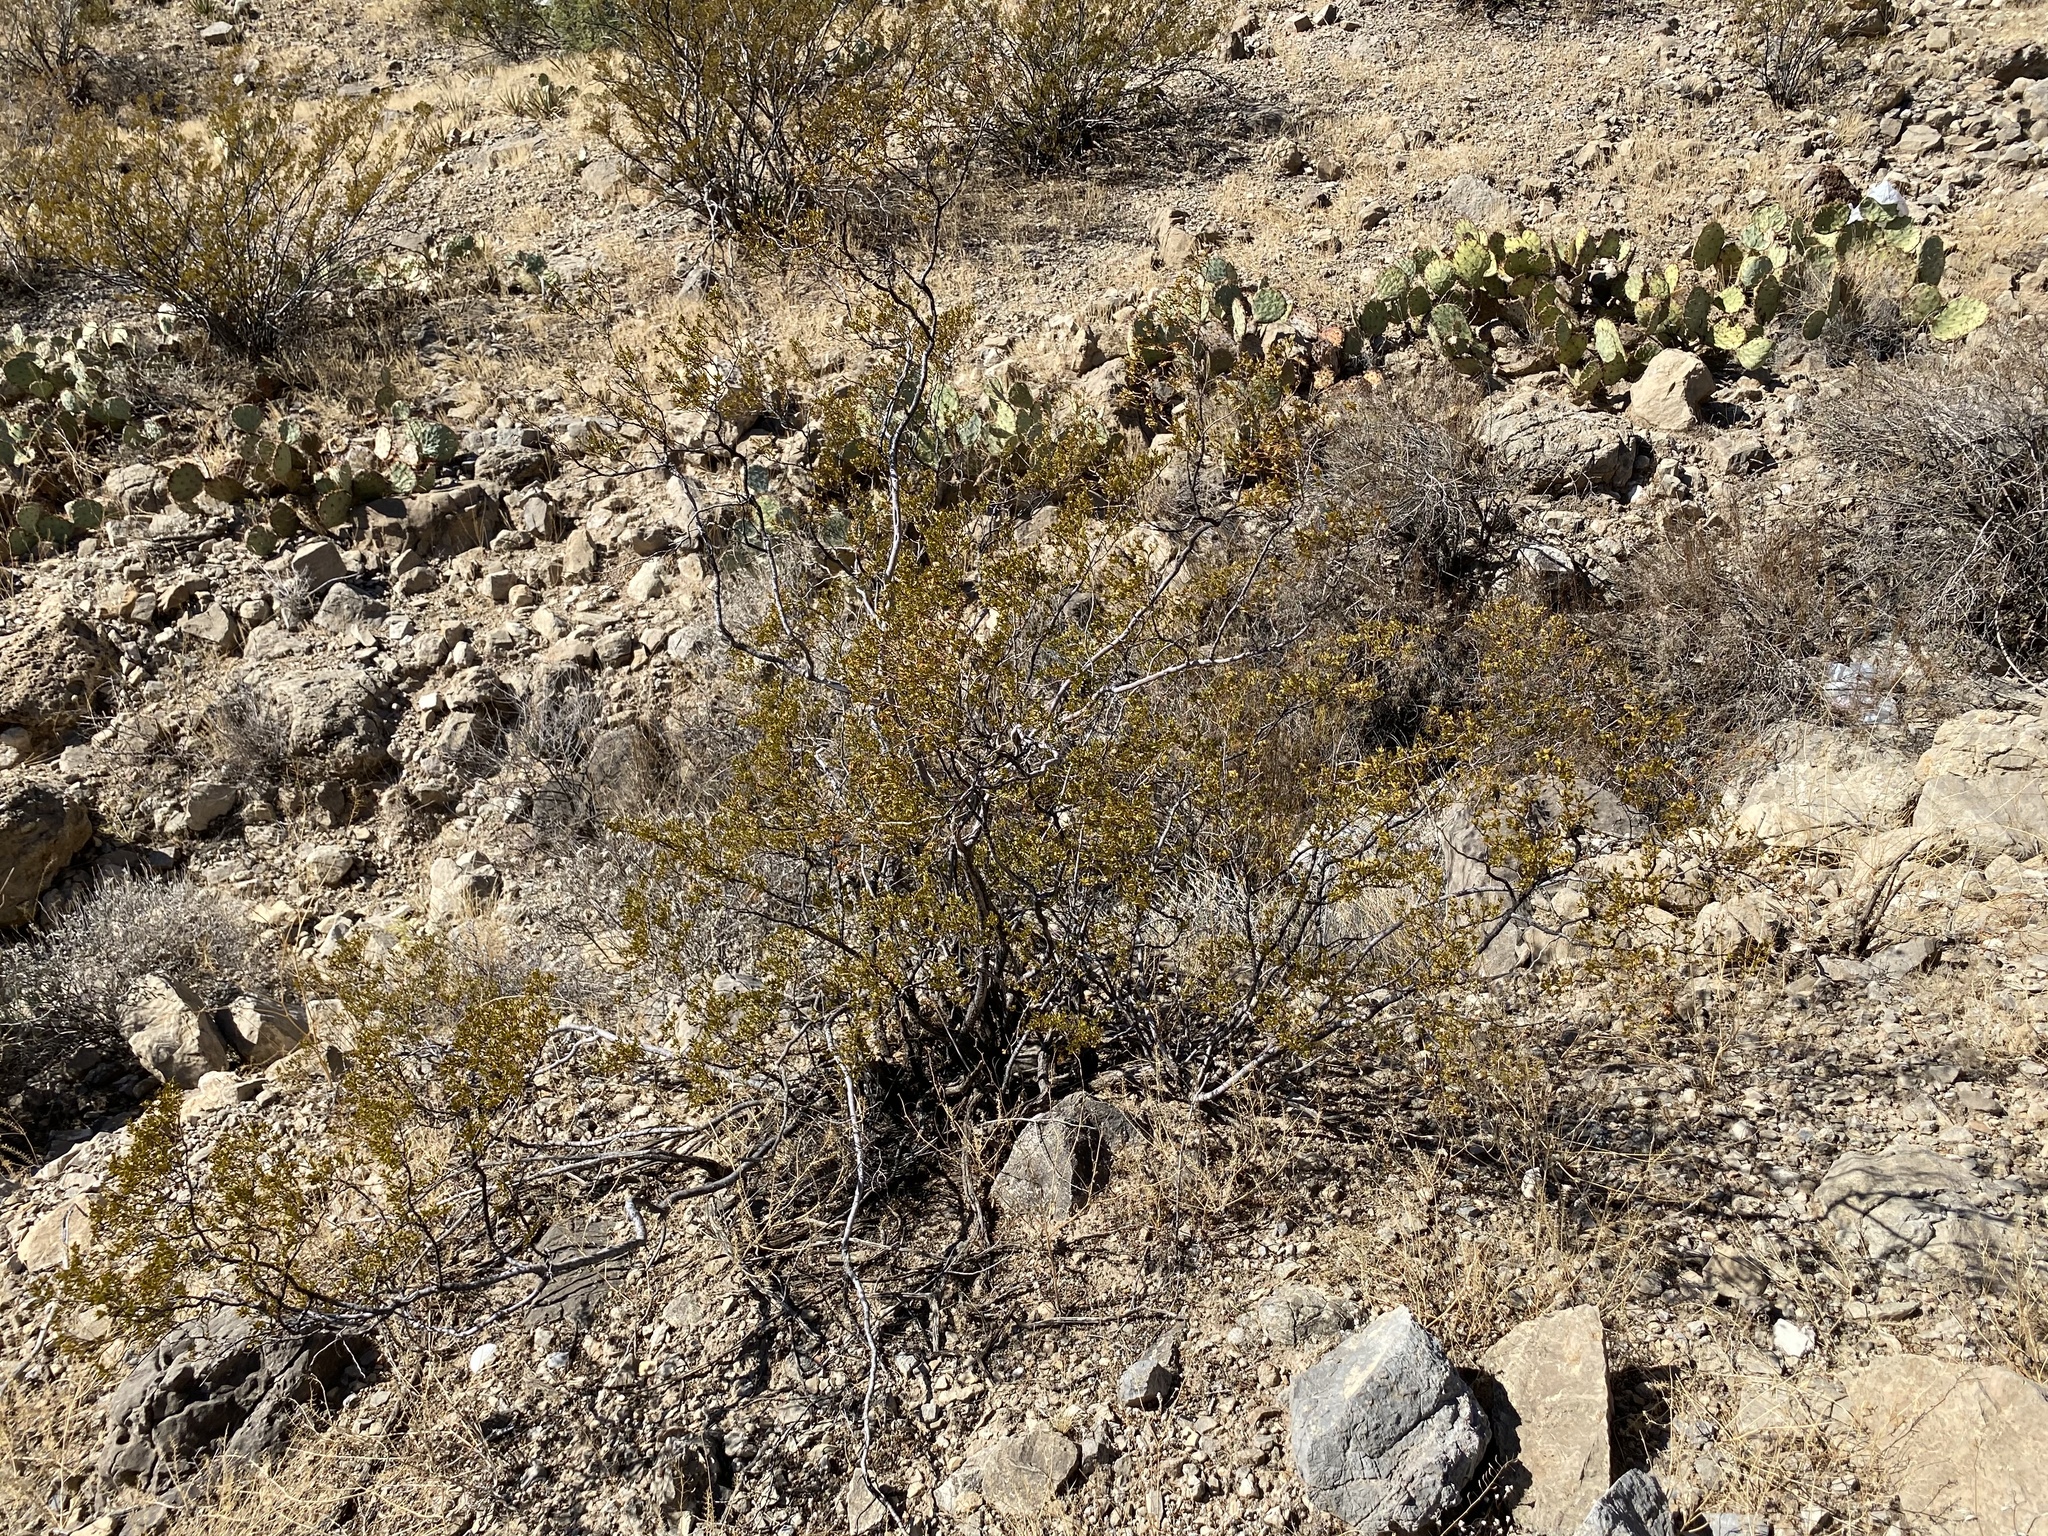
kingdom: Plantae
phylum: Tracheophyta
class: Magnoliopsida
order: Zygophyllales
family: Zygophyllaceae
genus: Larrea
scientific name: Larrea tridentata
